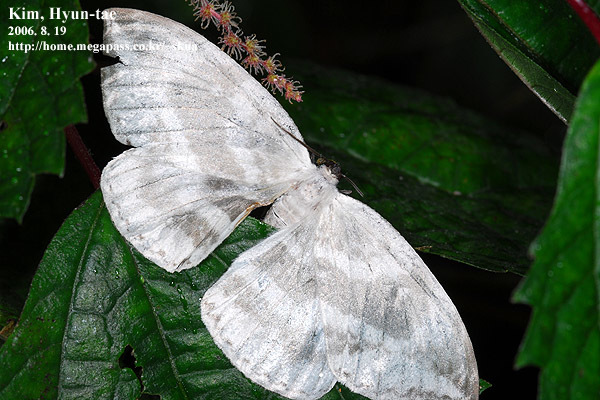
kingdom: Animalia
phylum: Arthropoda
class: Insecta
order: Lepidoptera
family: Drepanidae
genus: Cyclidia
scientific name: Cyclidia substigmaria
